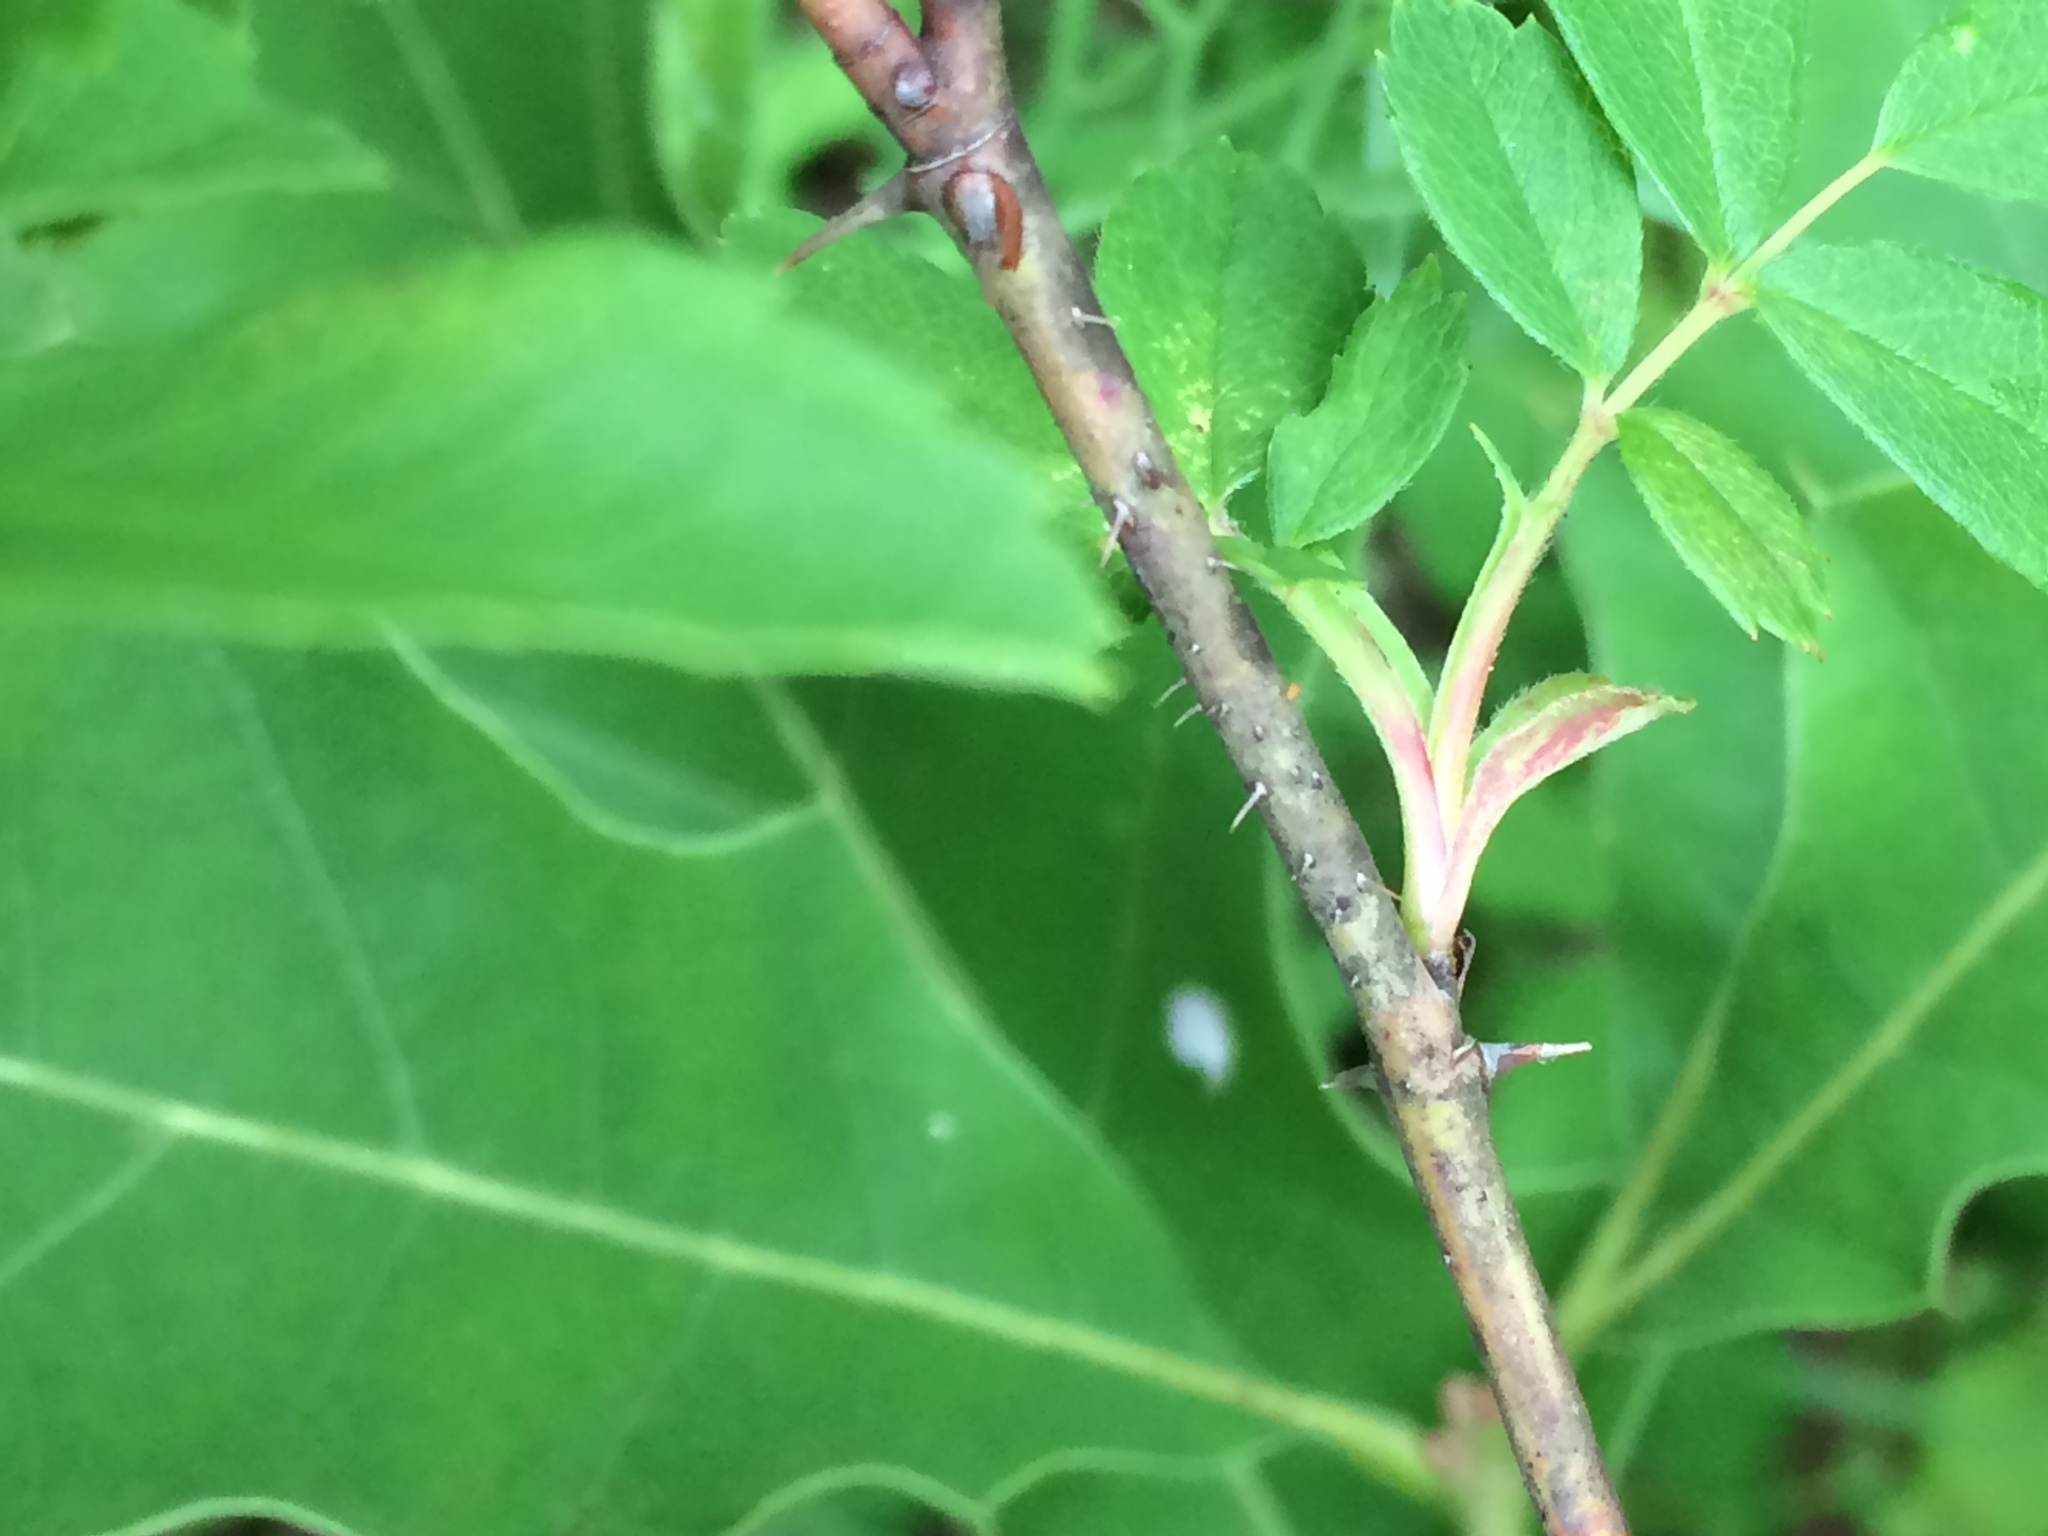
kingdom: Plantae
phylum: Tracheophyta
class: Magnoliopsida
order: Rosales
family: Rosaceae
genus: Rosa
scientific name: Rosa carolina
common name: Pasture rose
